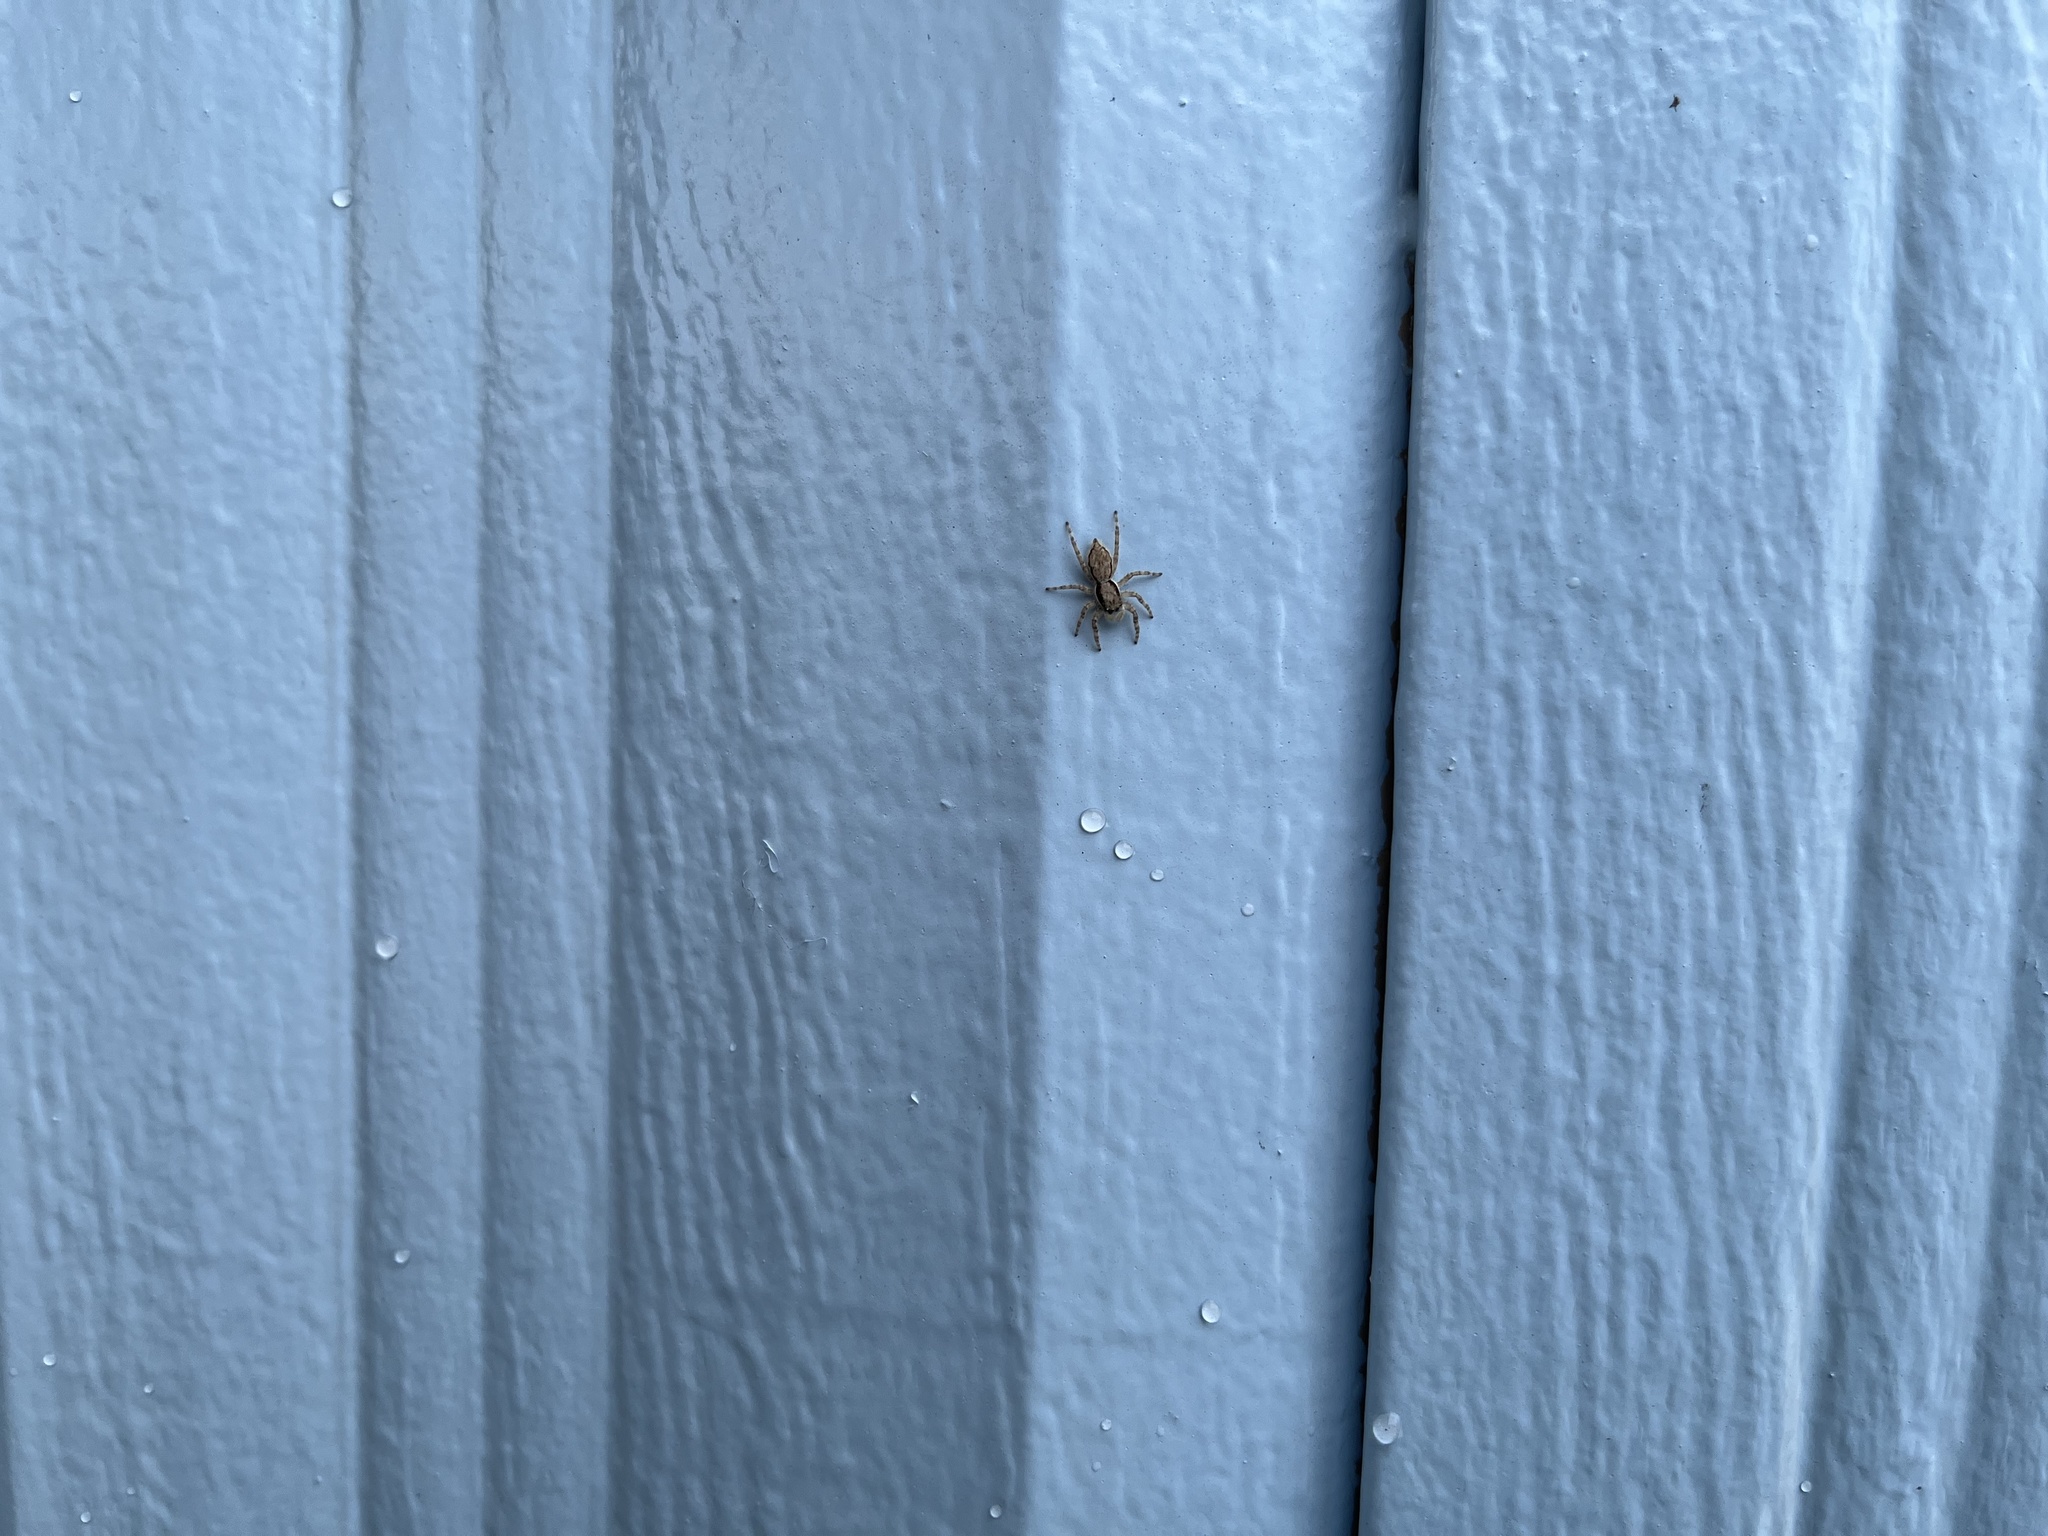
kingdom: Animalia
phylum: Arthropoda
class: Arachnida
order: Araneae
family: Salticidae
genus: Menemerus
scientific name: Menemerus bivittatus
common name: Gray wall jumper
